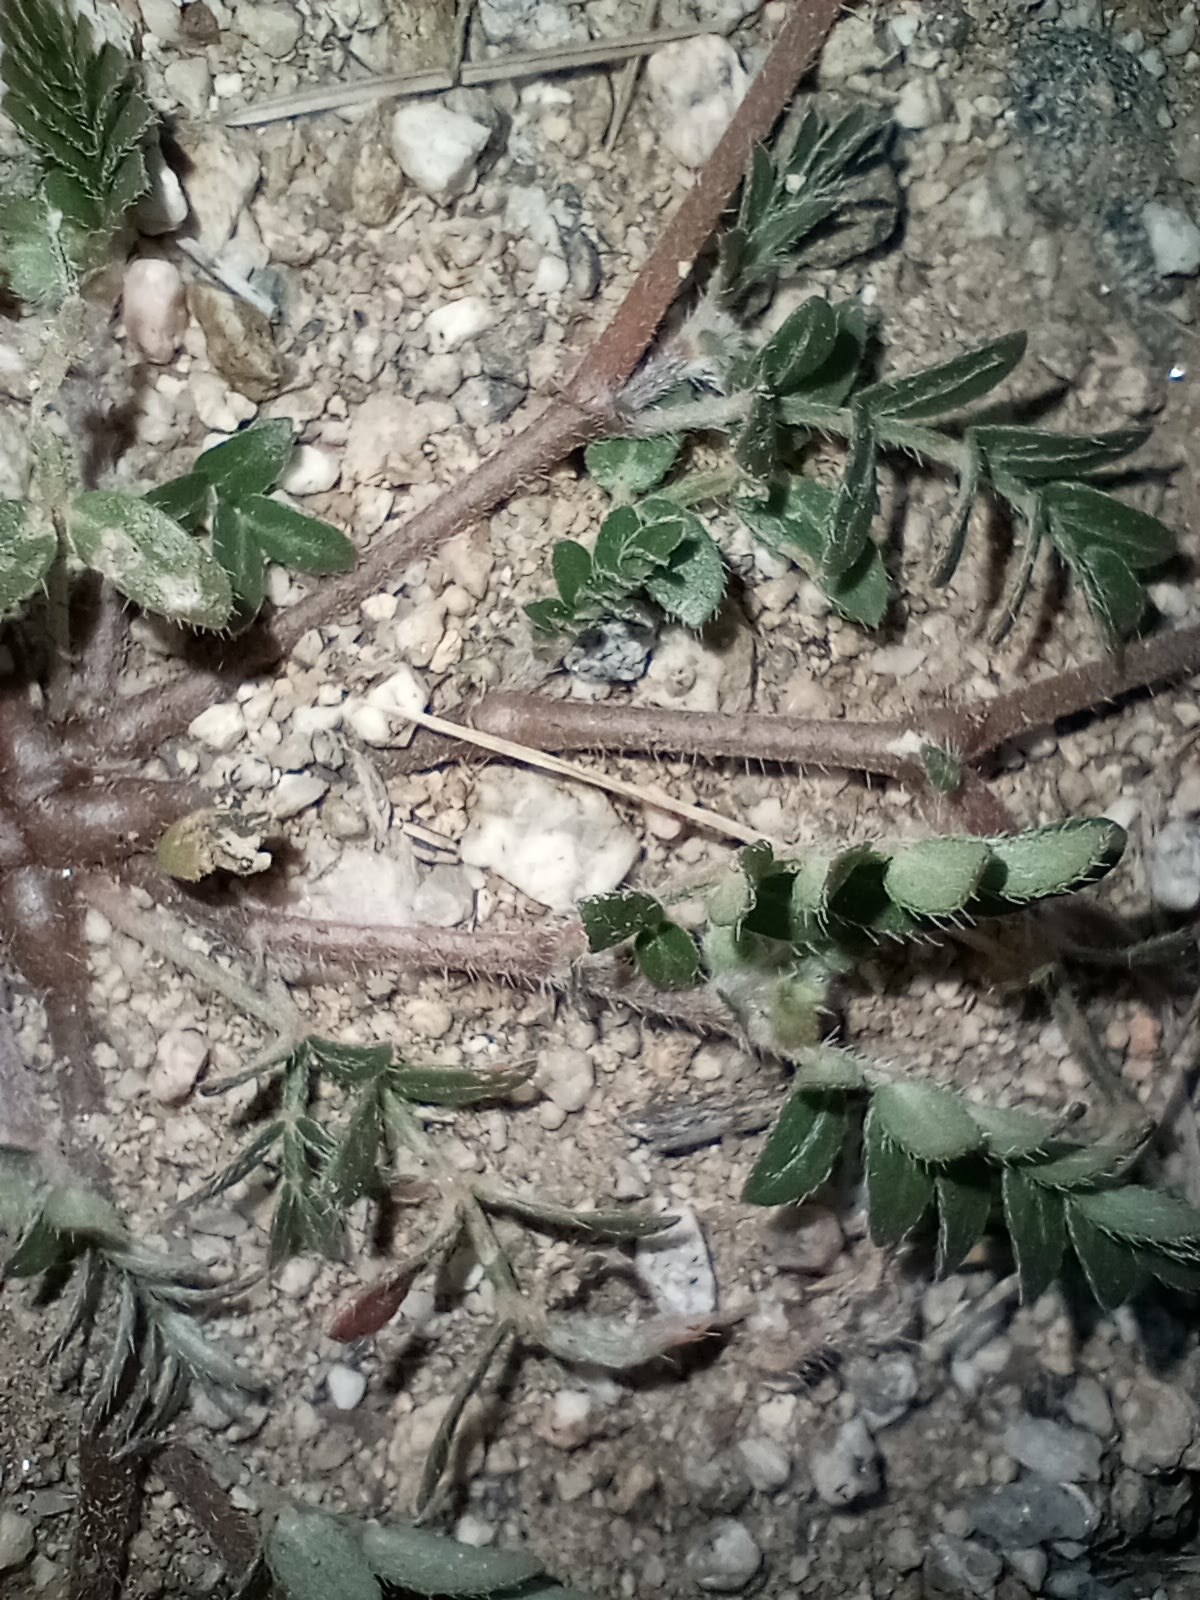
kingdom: Plantae
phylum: Tracheophyta
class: Magnoliopsida
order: Zygophyllales
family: Zygophyllaceae
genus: Tribulus
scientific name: Tribulus terrestris
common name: Puncturevine
